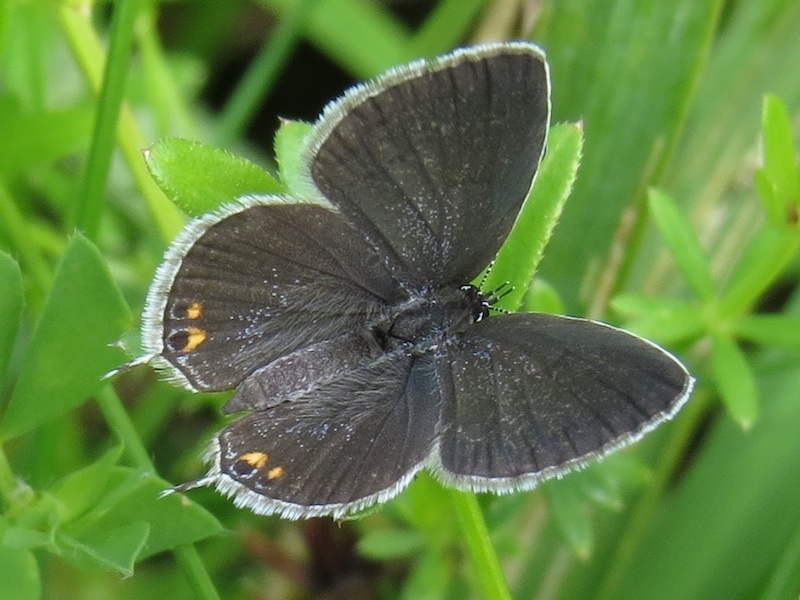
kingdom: Animalia
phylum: Arthropoda
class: Insecta
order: Lepidoptera
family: Lycaenidae
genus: Elkalyce
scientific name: Elkalyce comyntas
